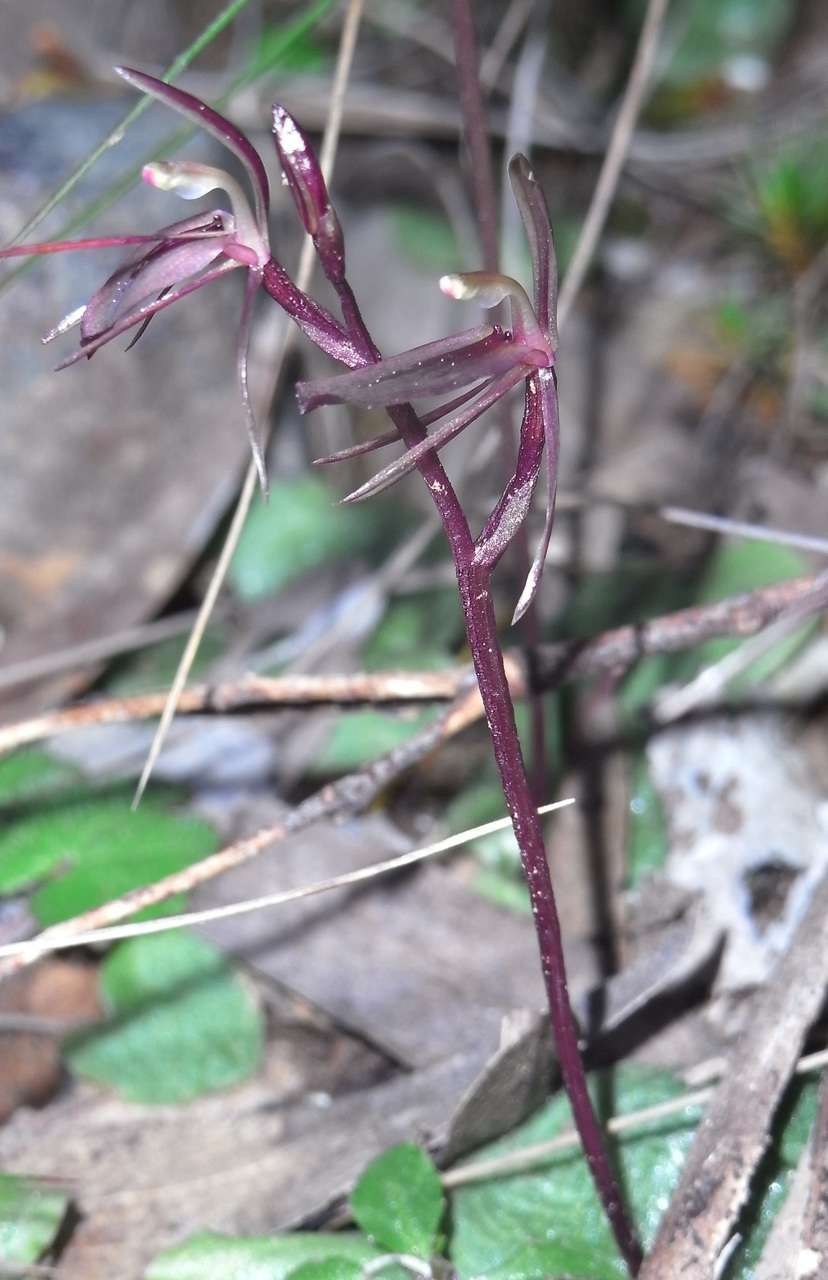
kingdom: Plantae
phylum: Tracheophyta
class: Liliopsida
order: Asparagales
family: Orchidaceae
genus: Cyrtostylis
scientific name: Cyrtostylis reniformis
